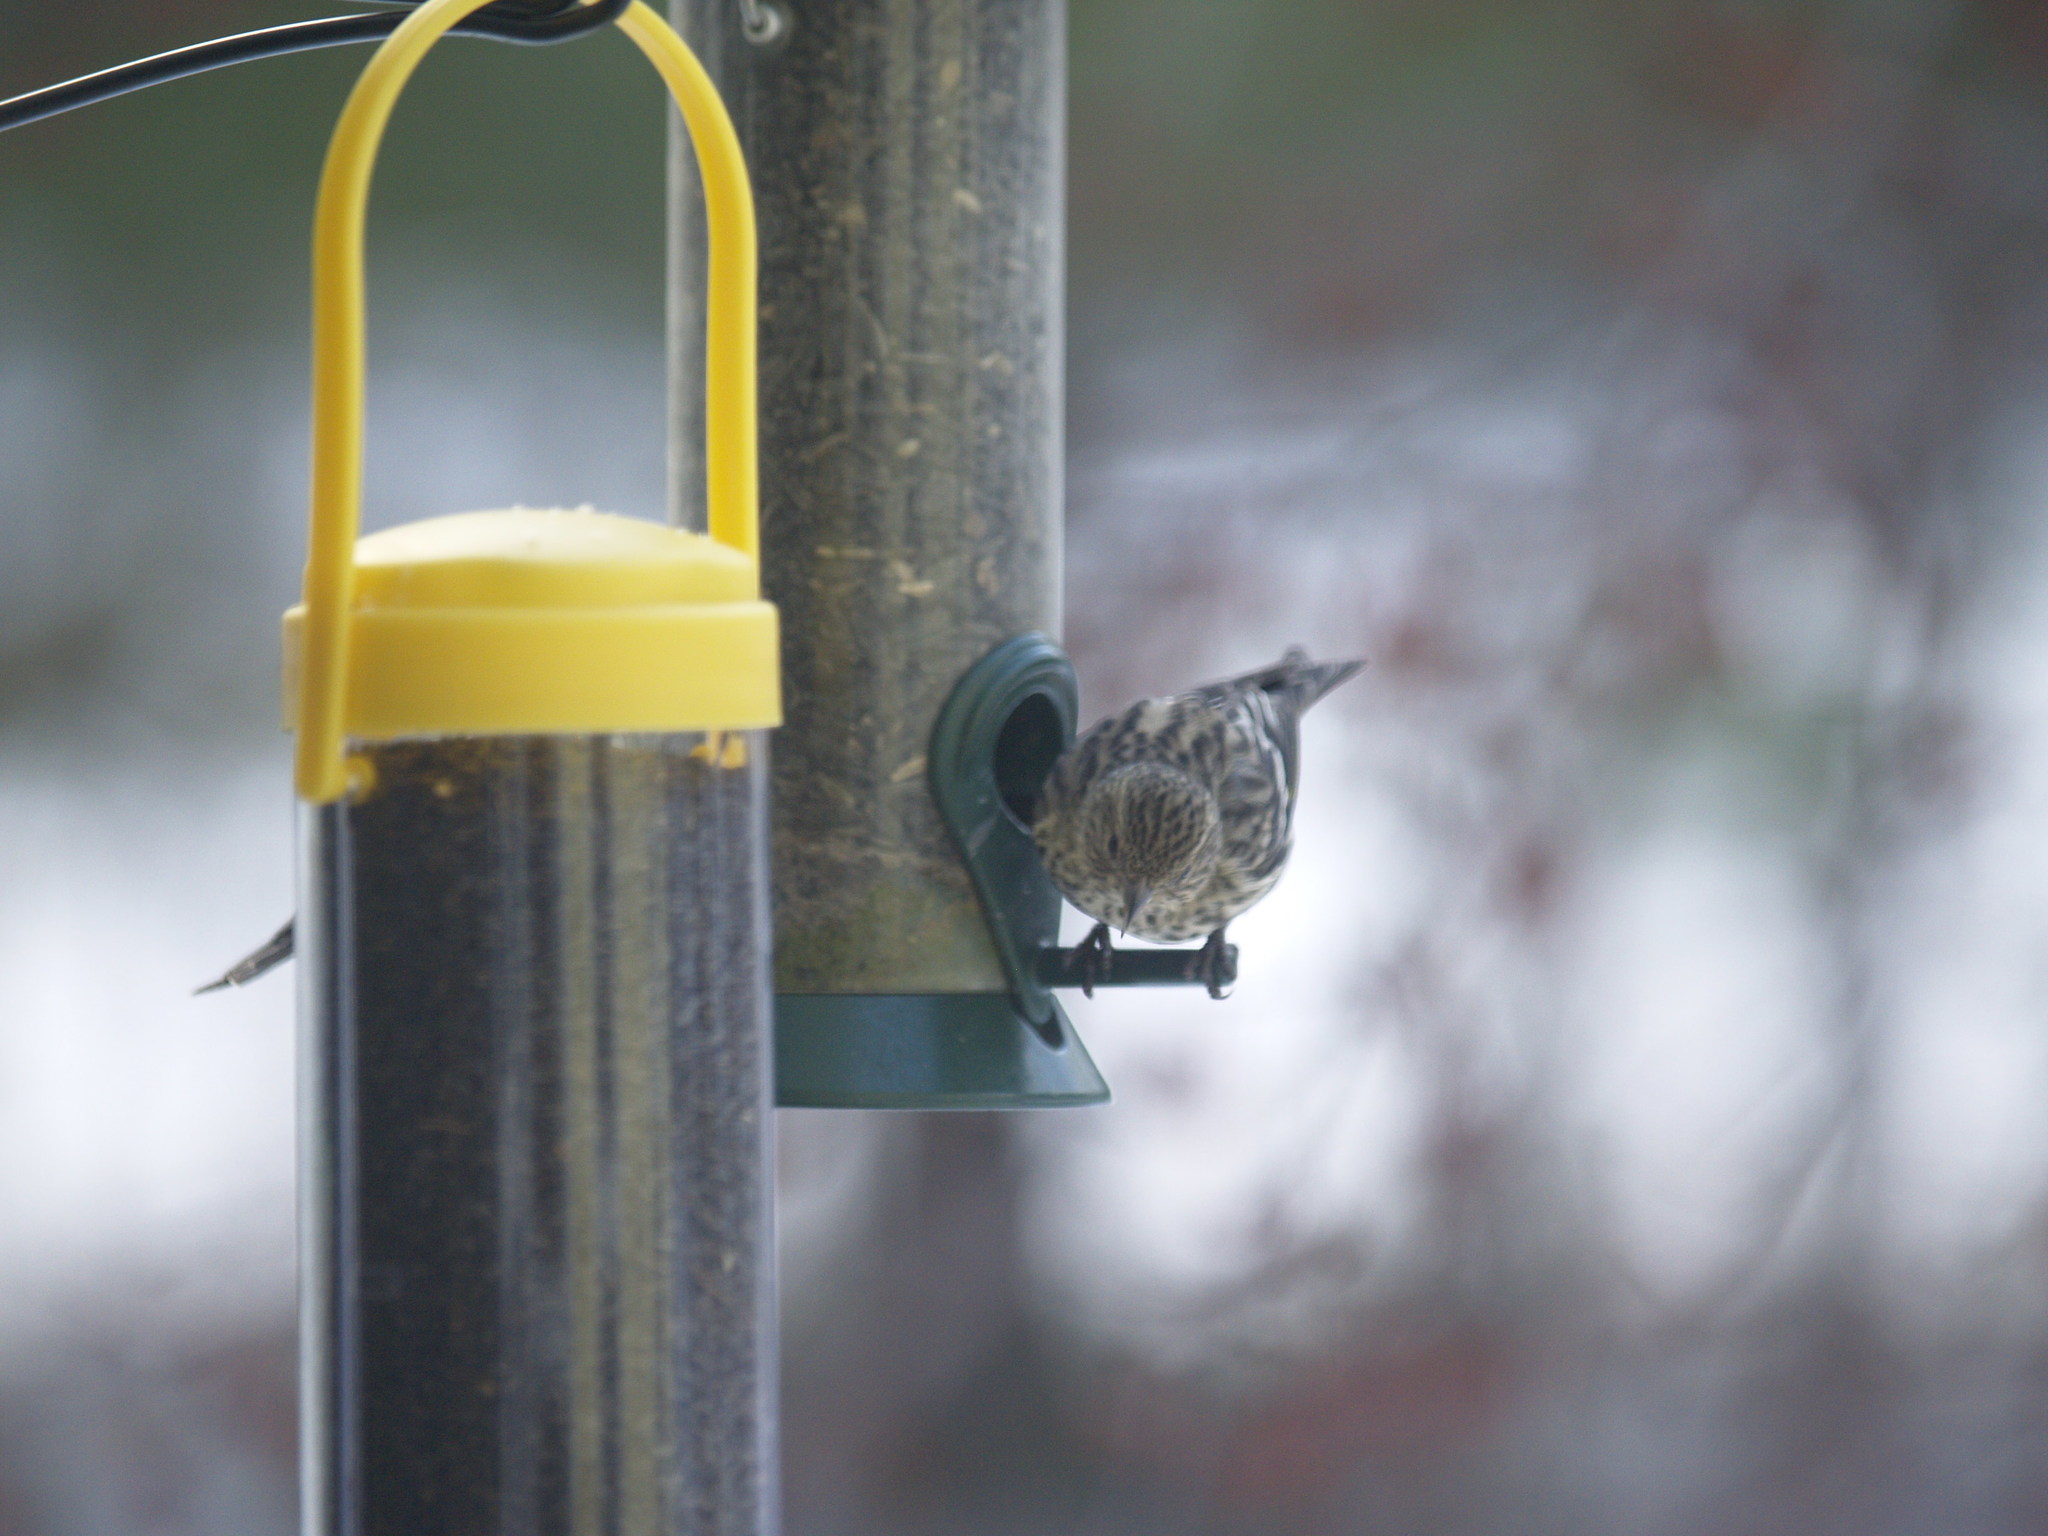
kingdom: Animalia
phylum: Chordata
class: Aves
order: Passeriformes
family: Fringillidae
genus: Spinus
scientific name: Spinus pinus
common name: Pine siskin
